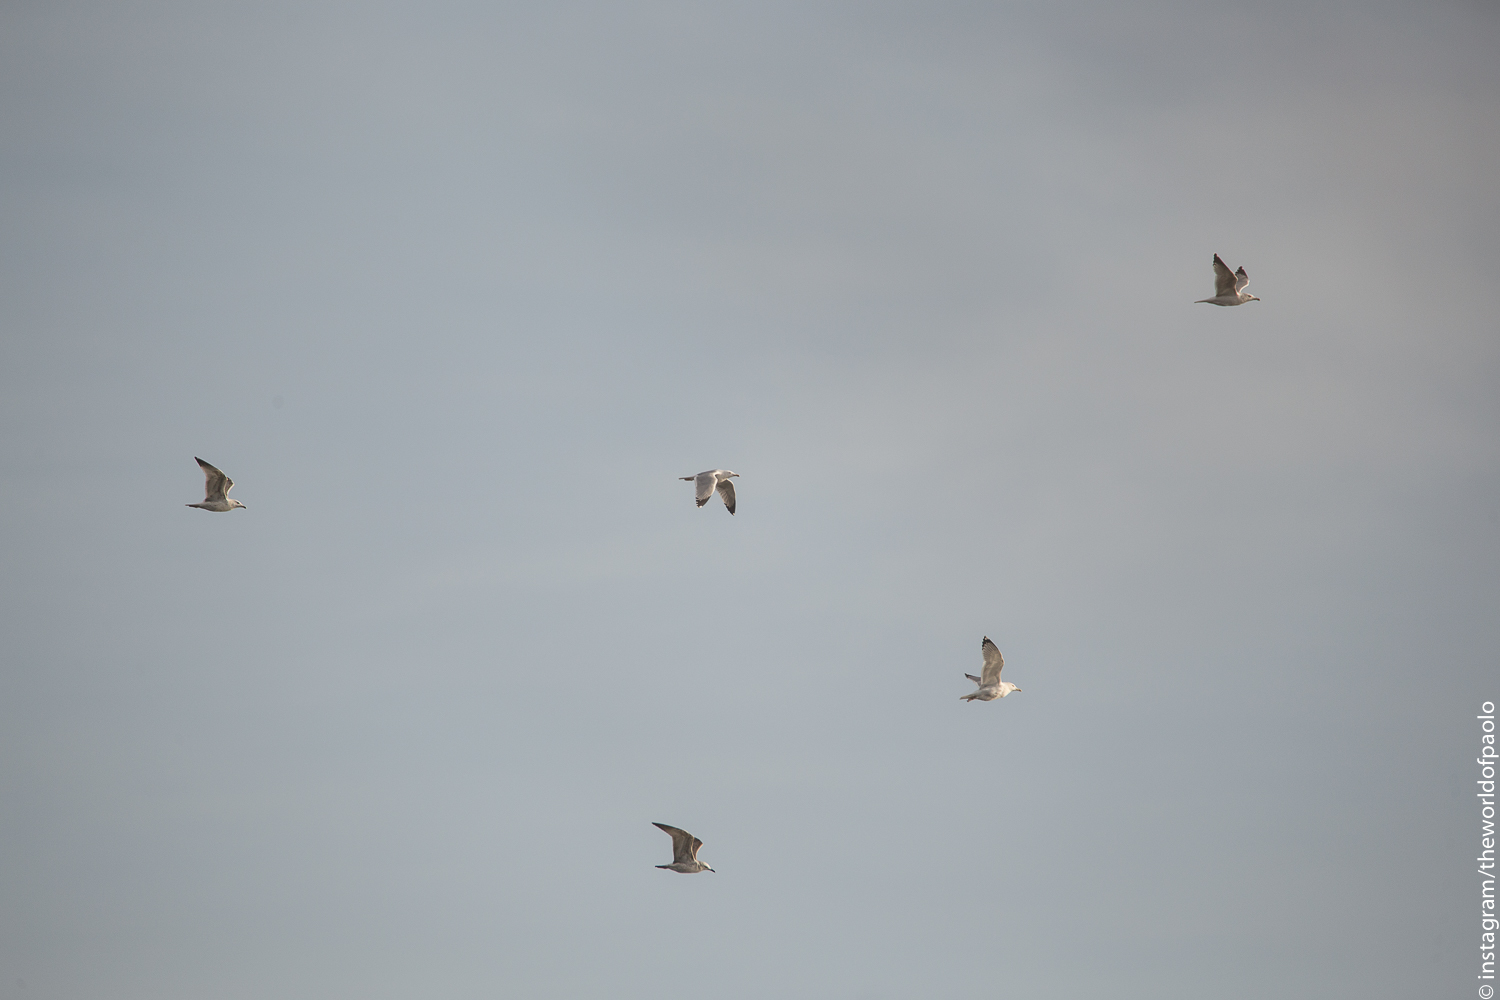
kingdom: Animalia
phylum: Chordata
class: Aves
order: Charadriiformes
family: Laridae
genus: Larus
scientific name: Larus michahellis
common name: Yellow-legged gull
